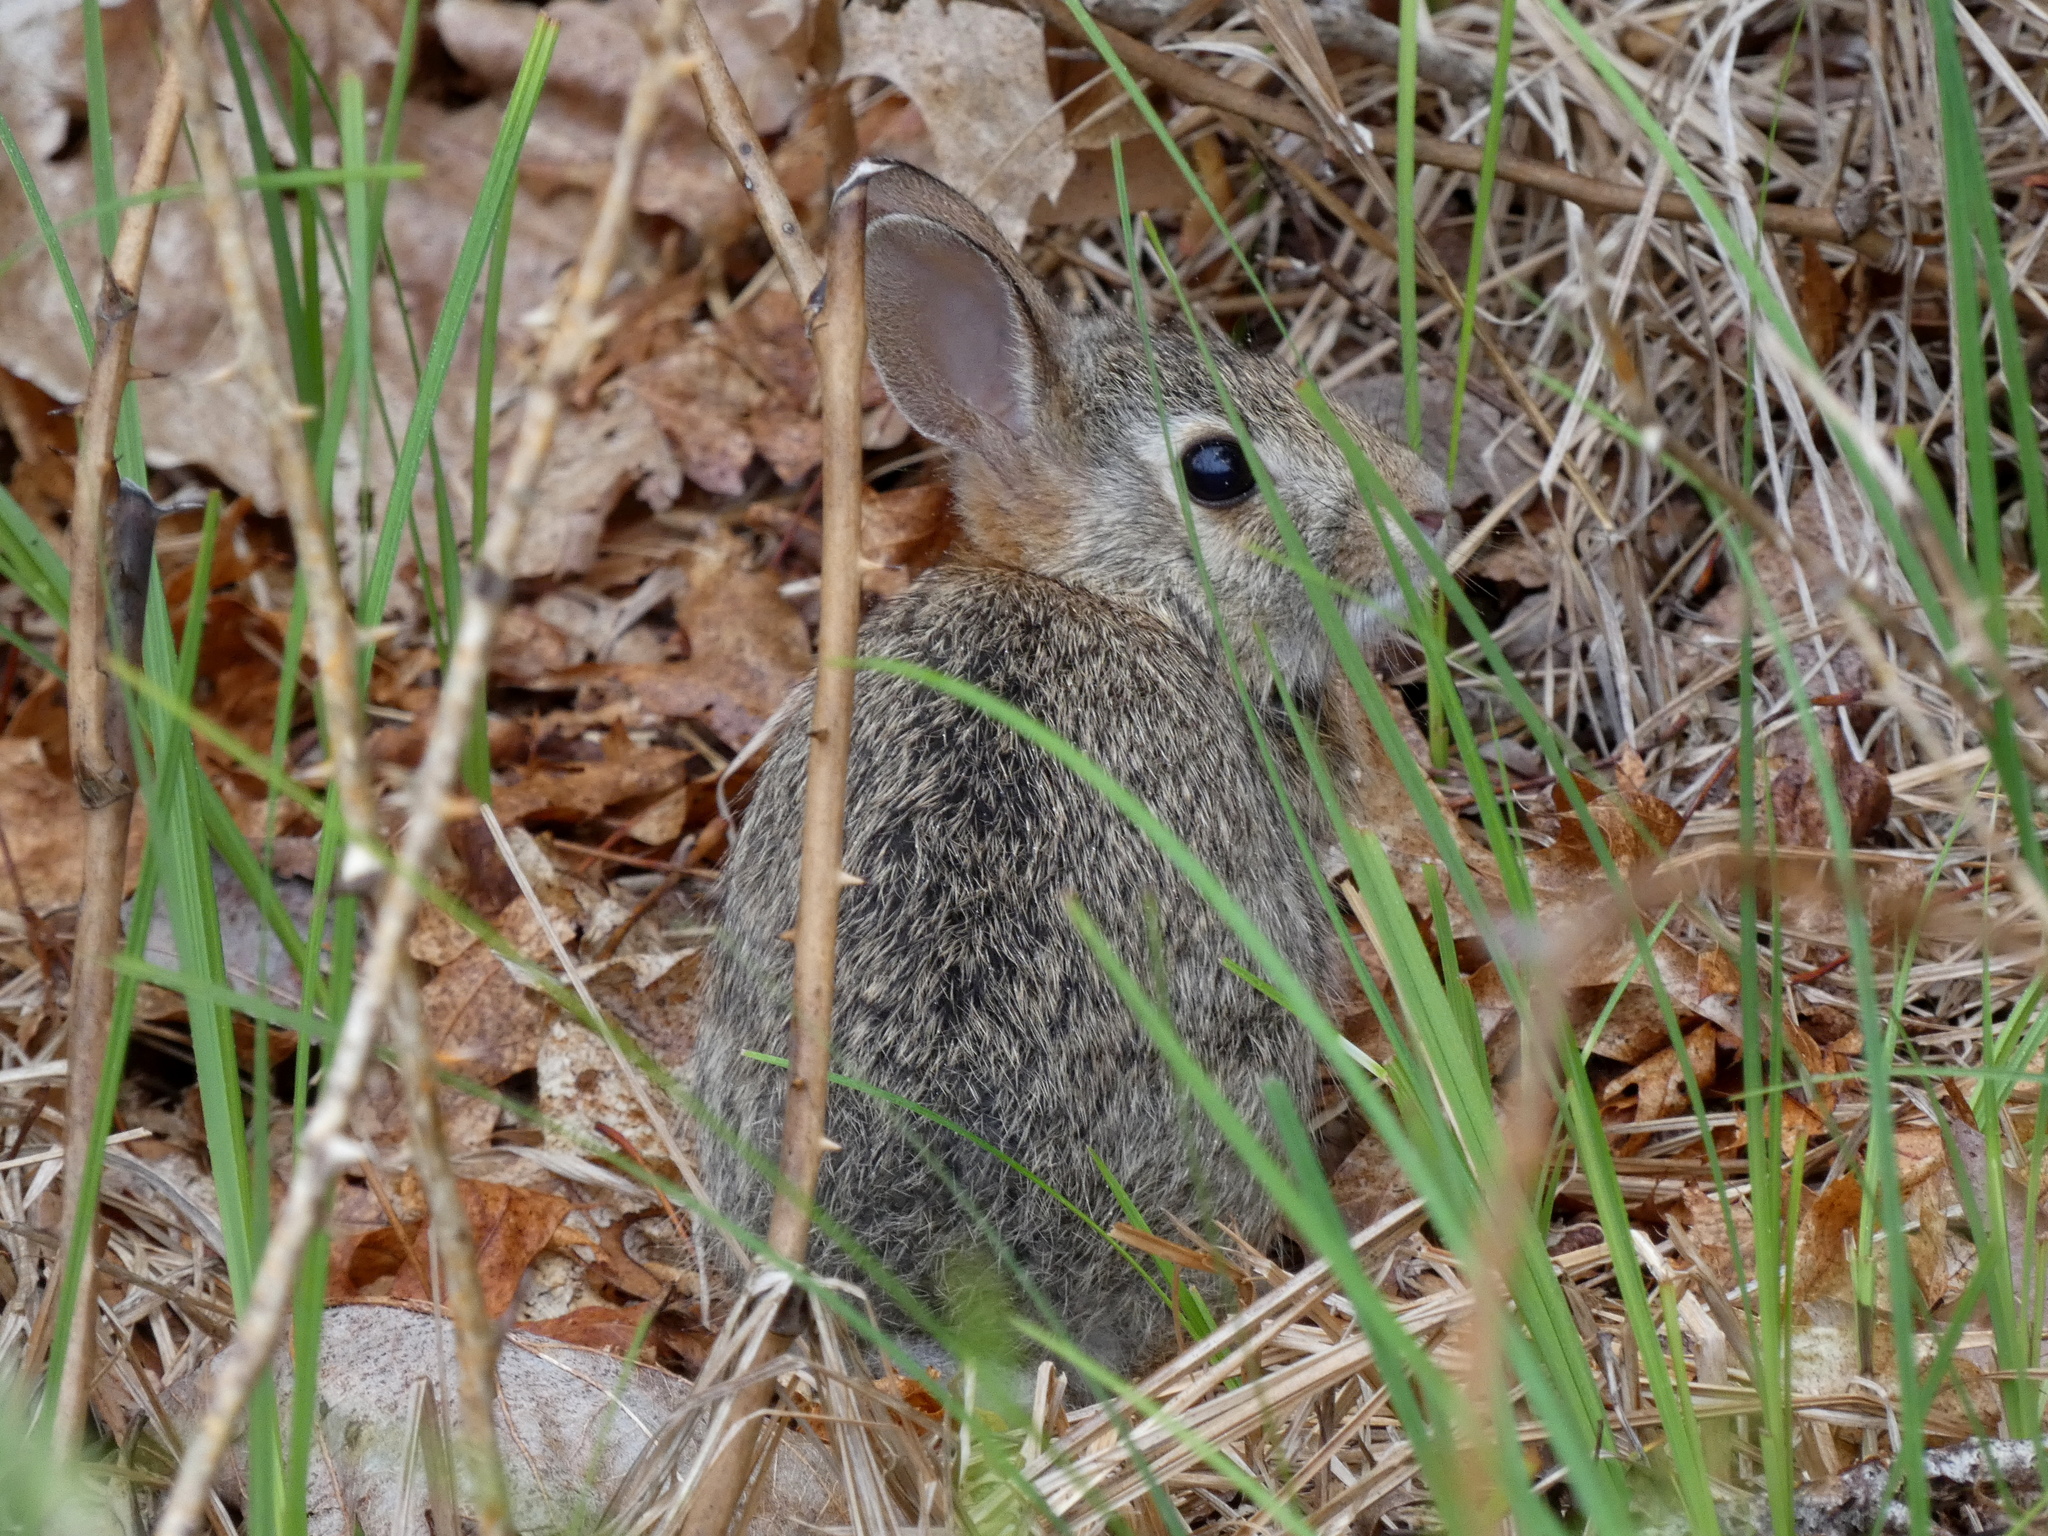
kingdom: Animalia
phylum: Chordata
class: Mammalia
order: Lagomorpha
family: Leporidae
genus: Sylvilagus
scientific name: Sylvilagus floridanus
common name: Eastern cottontail
